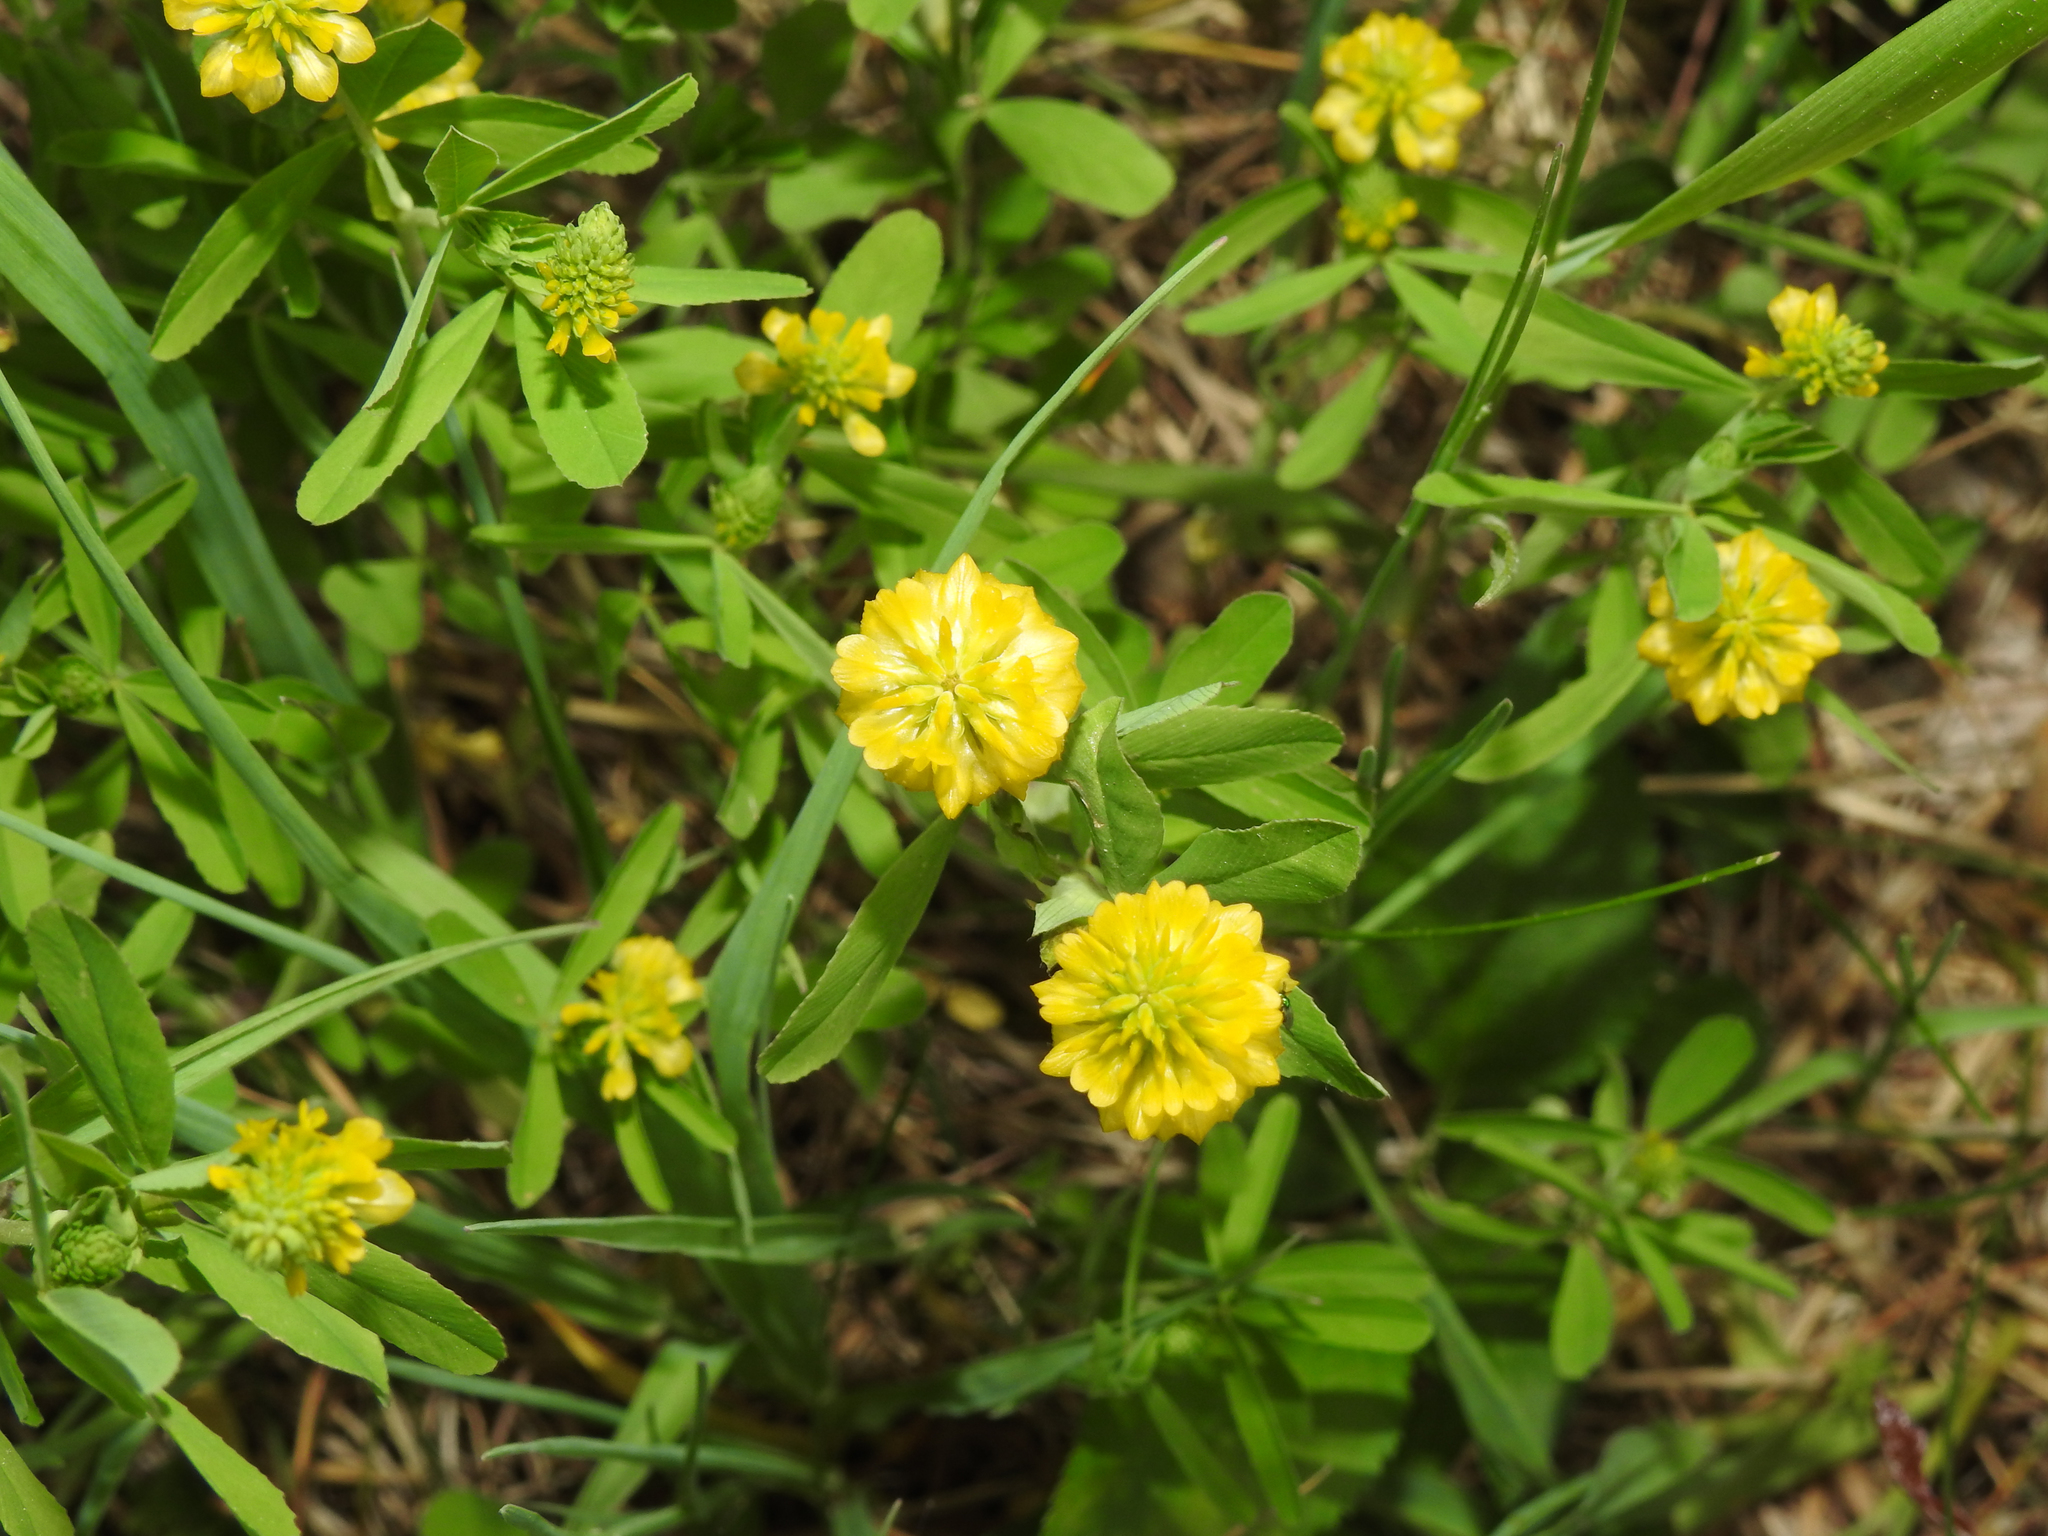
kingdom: Plantae
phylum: Tracheophyta
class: Magnoliopsida
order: Fabales
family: Fabaceae
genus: Trifolium
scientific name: Trifolium aureum
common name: Golden clover
